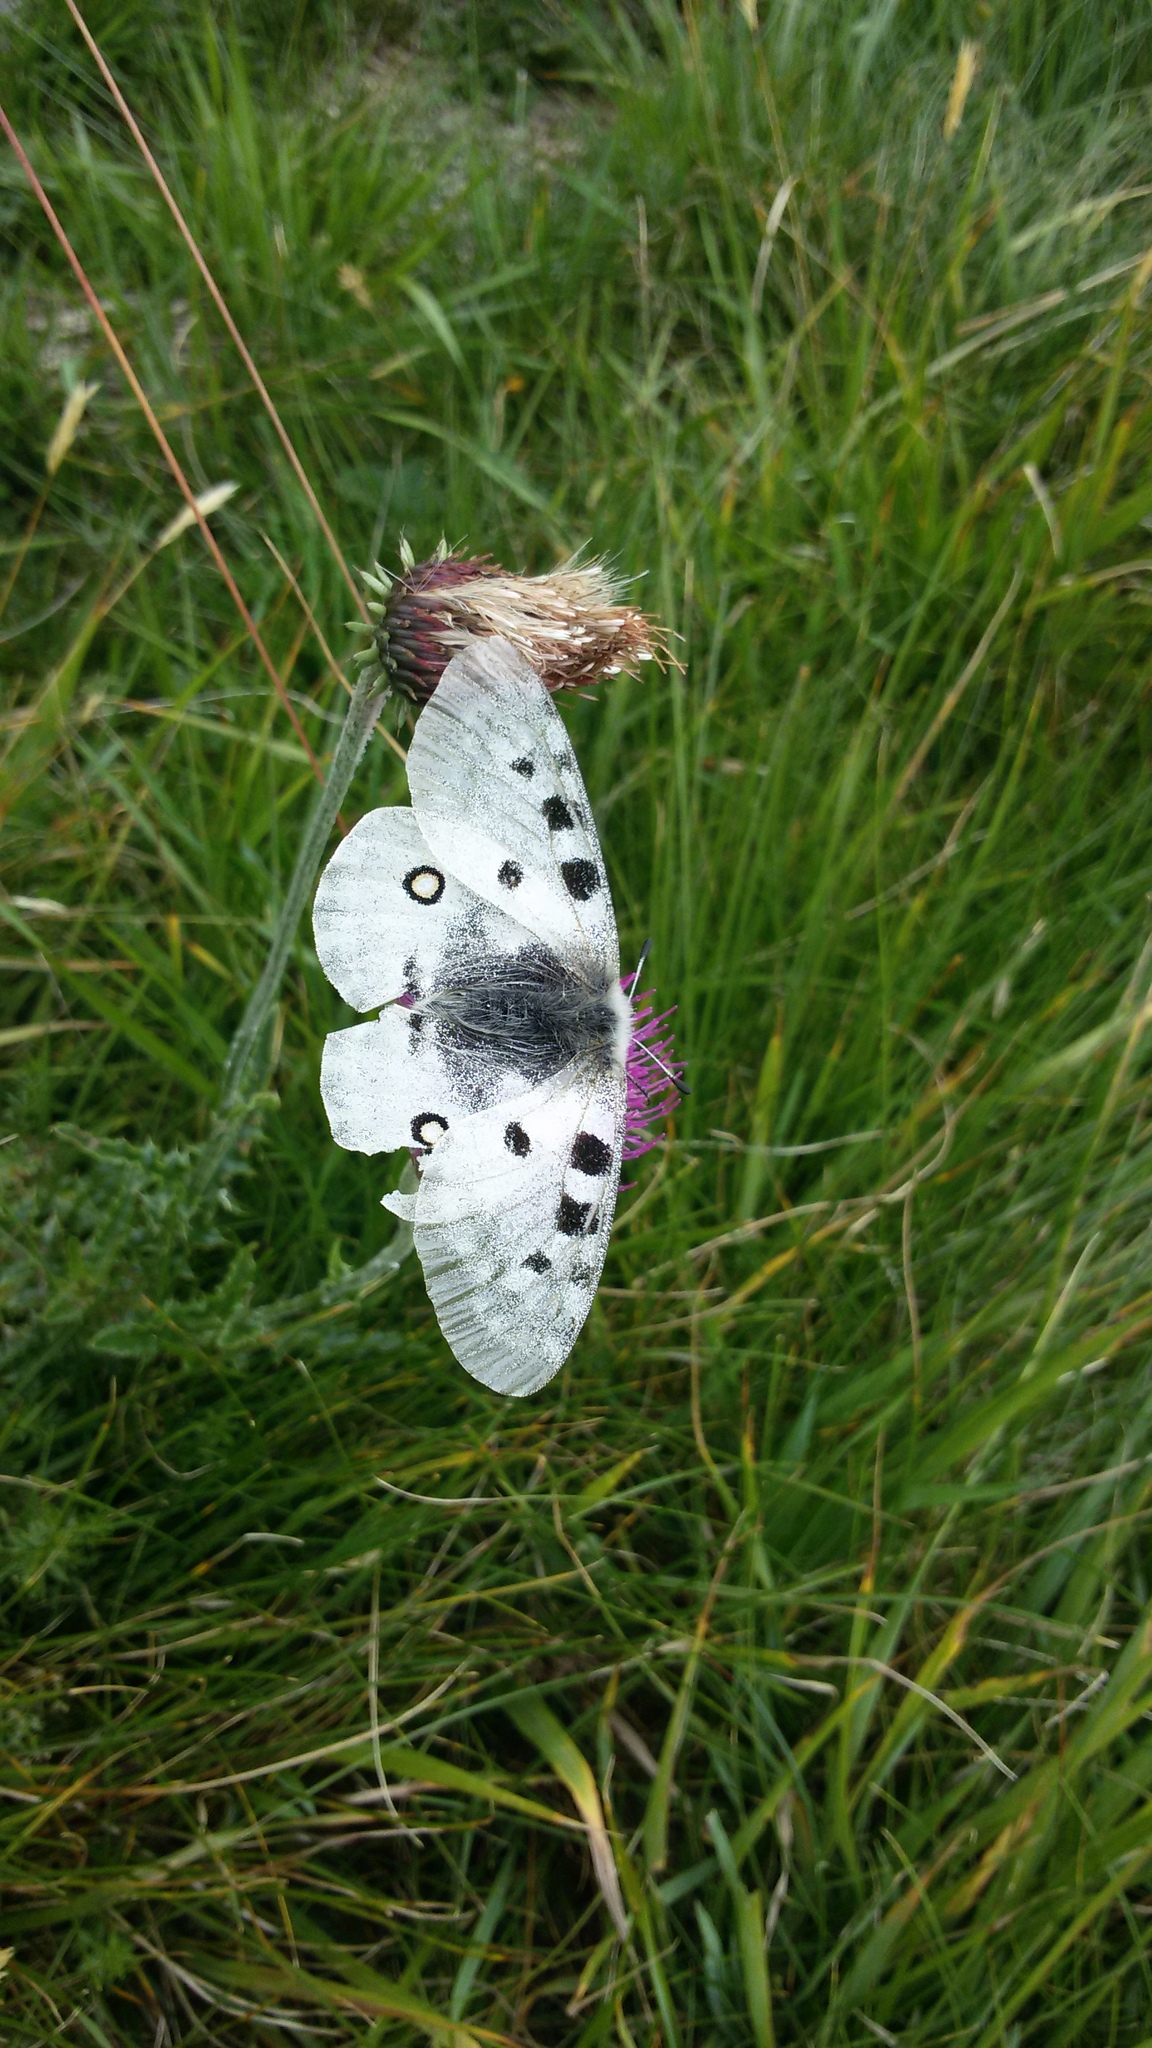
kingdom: Animalia
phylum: Arthropoda
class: Insecta
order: Lepidoptera
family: Papilionidae
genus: Parnassius
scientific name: Parnassius apollo
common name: Apollo
